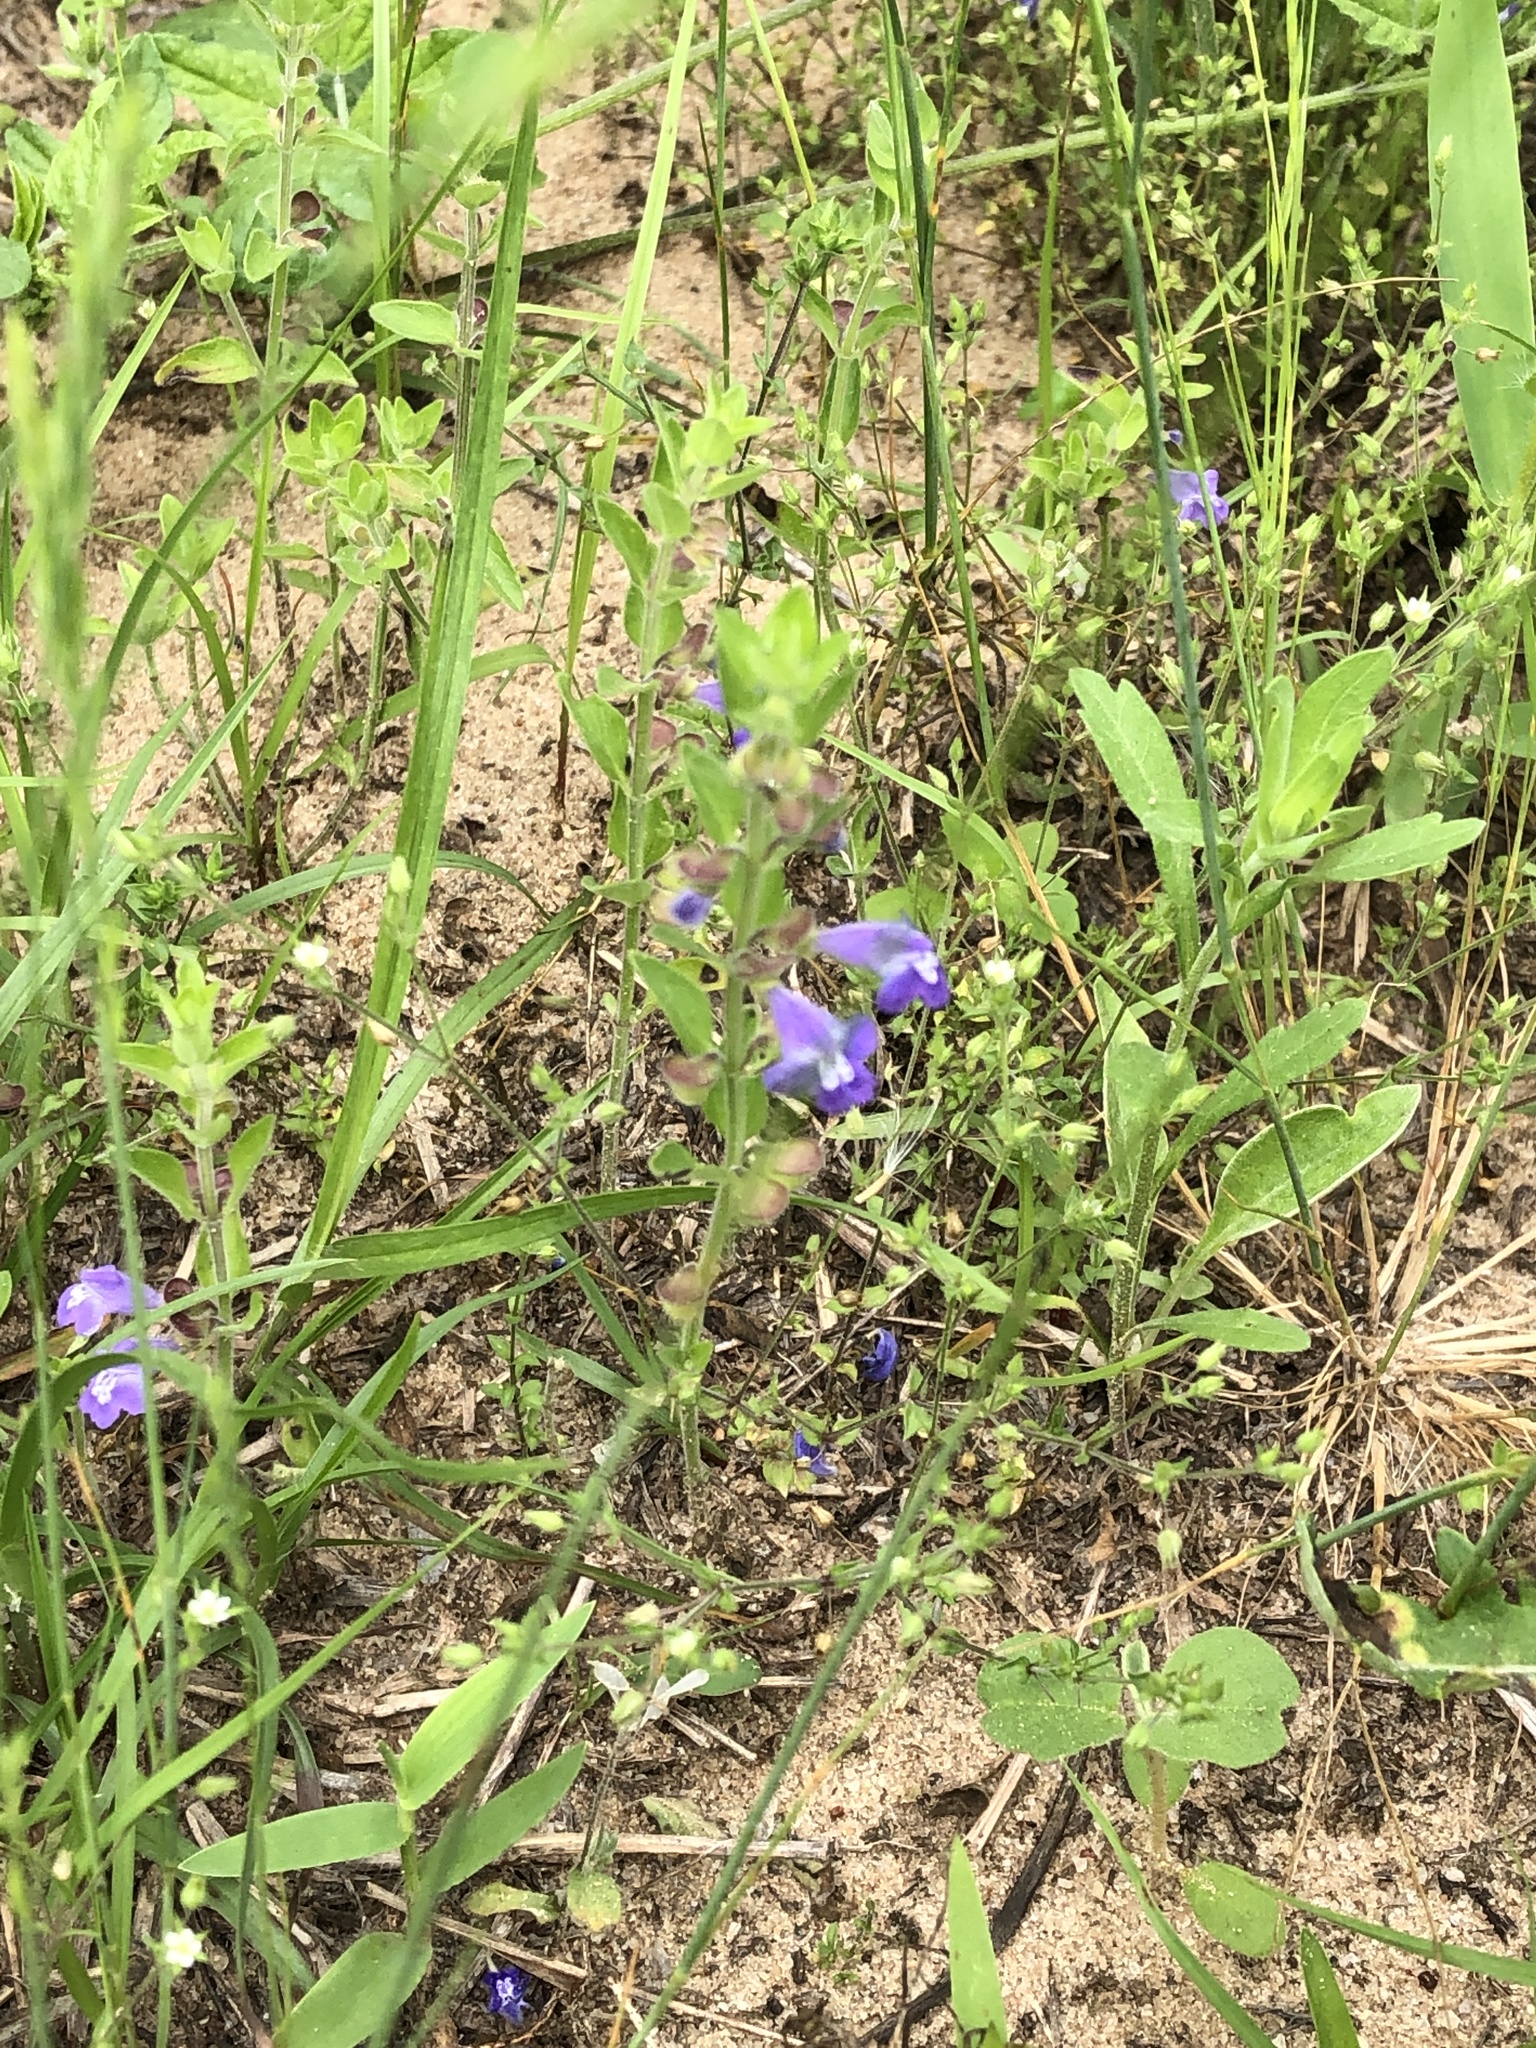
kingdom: Plantae
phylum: Tracheophyta
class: Magnoliopsida
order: Lamiales
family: Lamiaceae
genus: Scutellaria
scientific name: Scutellaria drummondii
